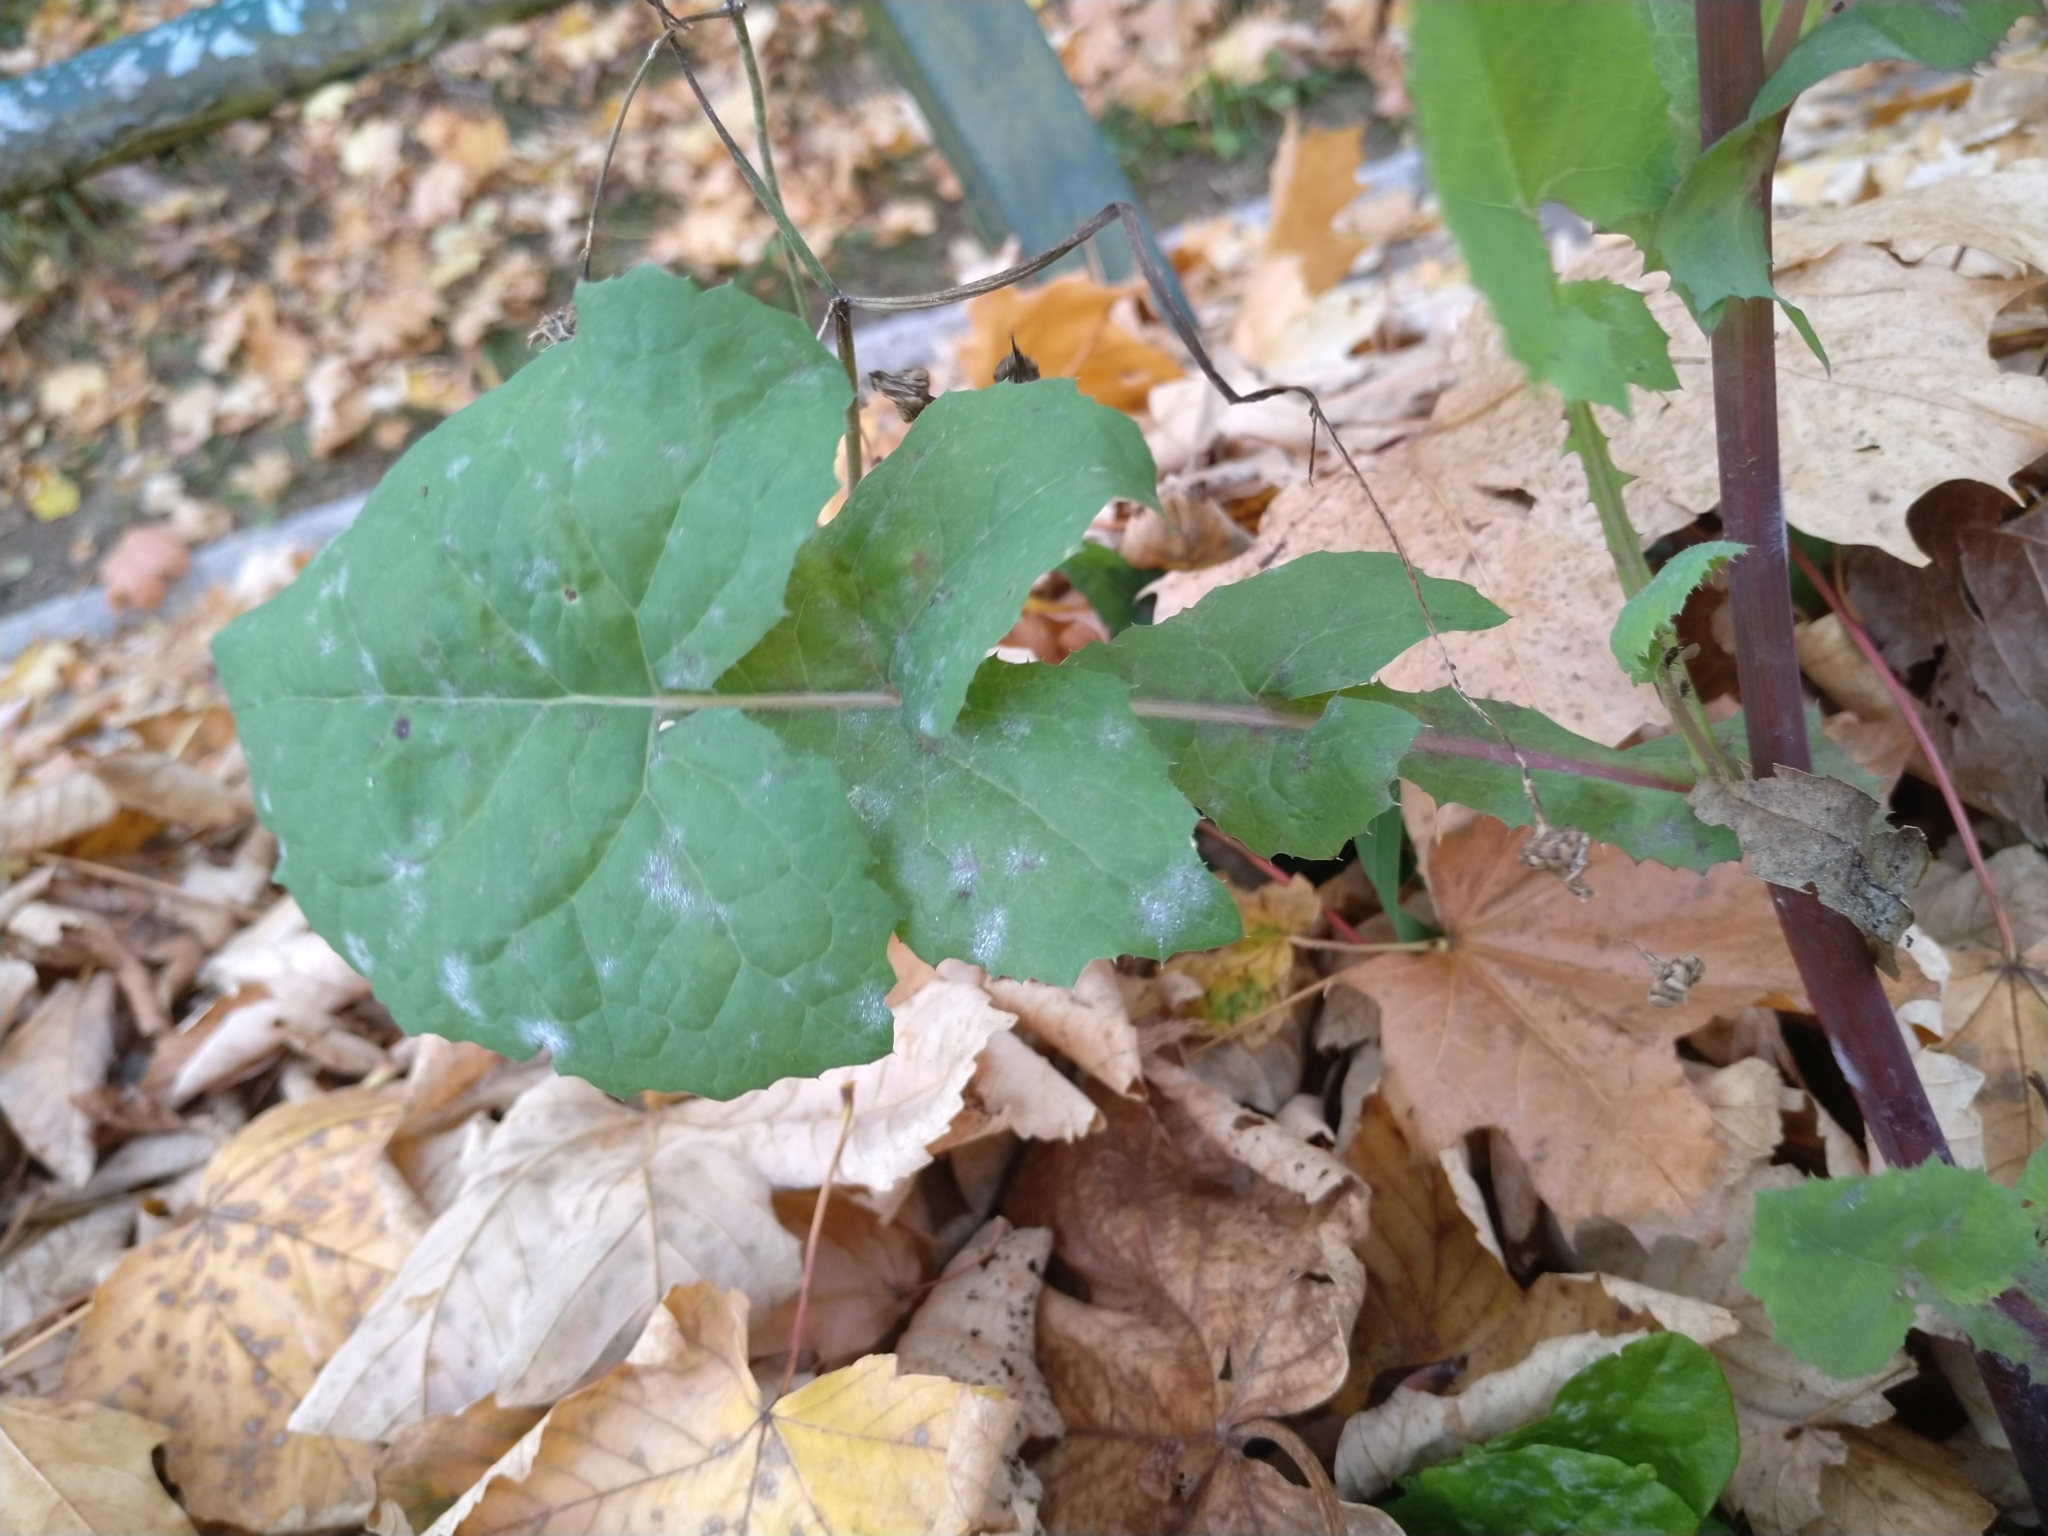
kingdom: Plantae
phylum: Tracheophyta
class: Magnoliopsida
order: Asterales
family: Asteraceae
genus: Sonchus
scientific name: Sonchus oleraceus
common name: Common sowthistle
